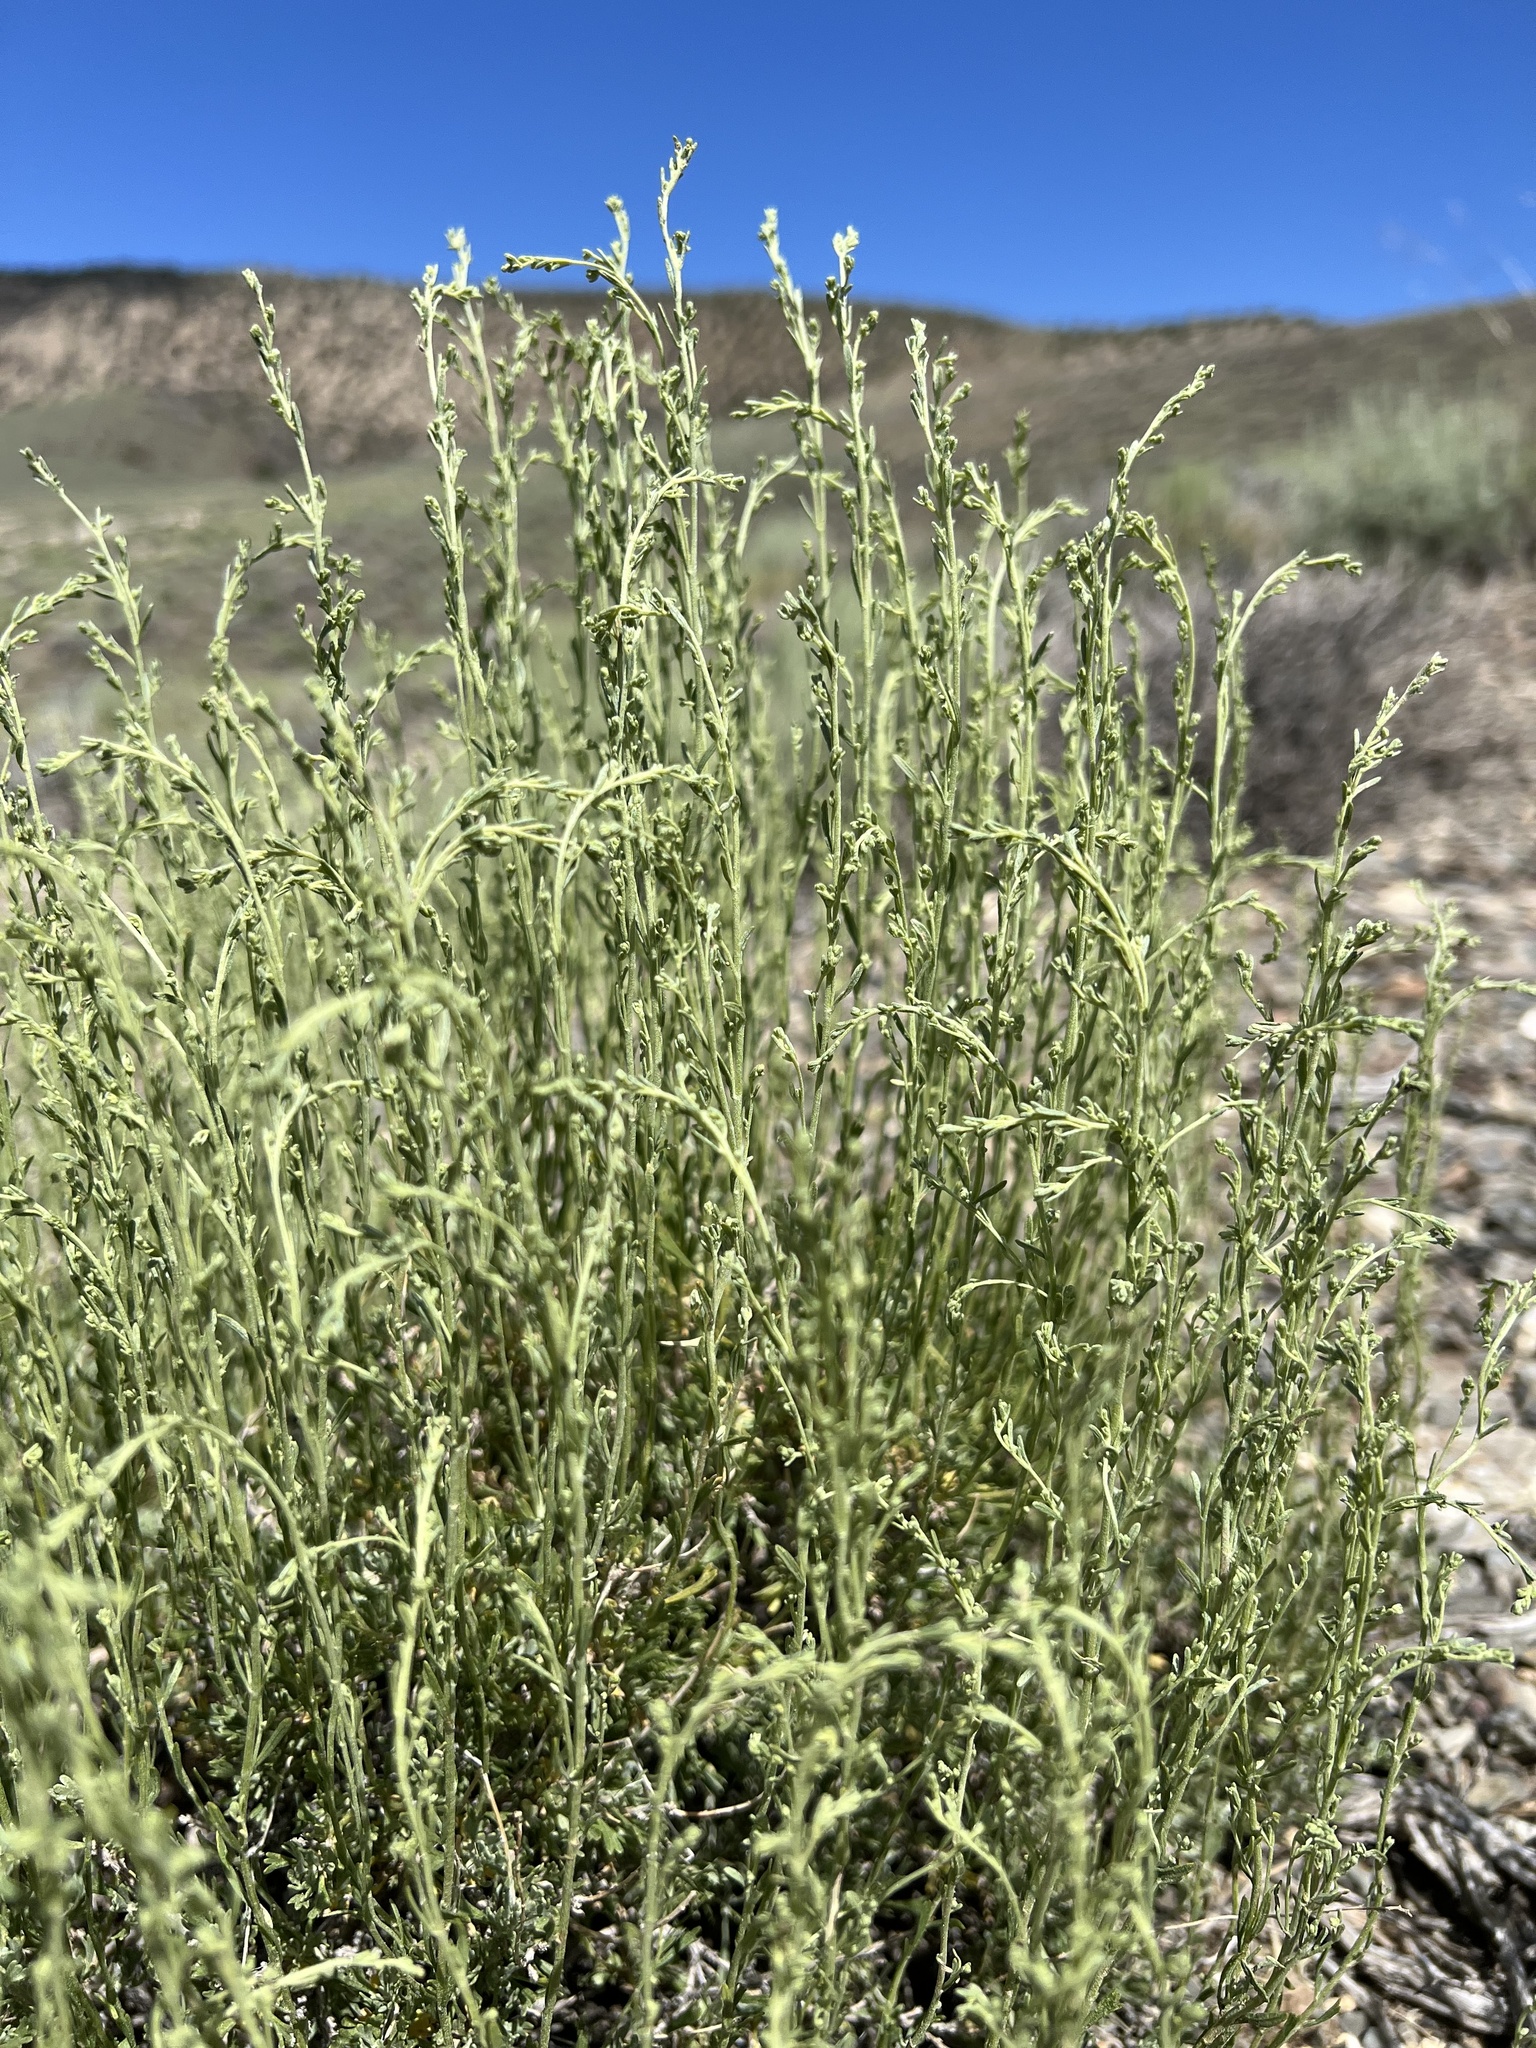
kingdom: Plantae
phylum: Tracheophyta
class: Magnoliopsida
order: Asterales
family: Asteraceae
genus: Artemisia
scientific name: Artemisia nova
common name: Black-sage
